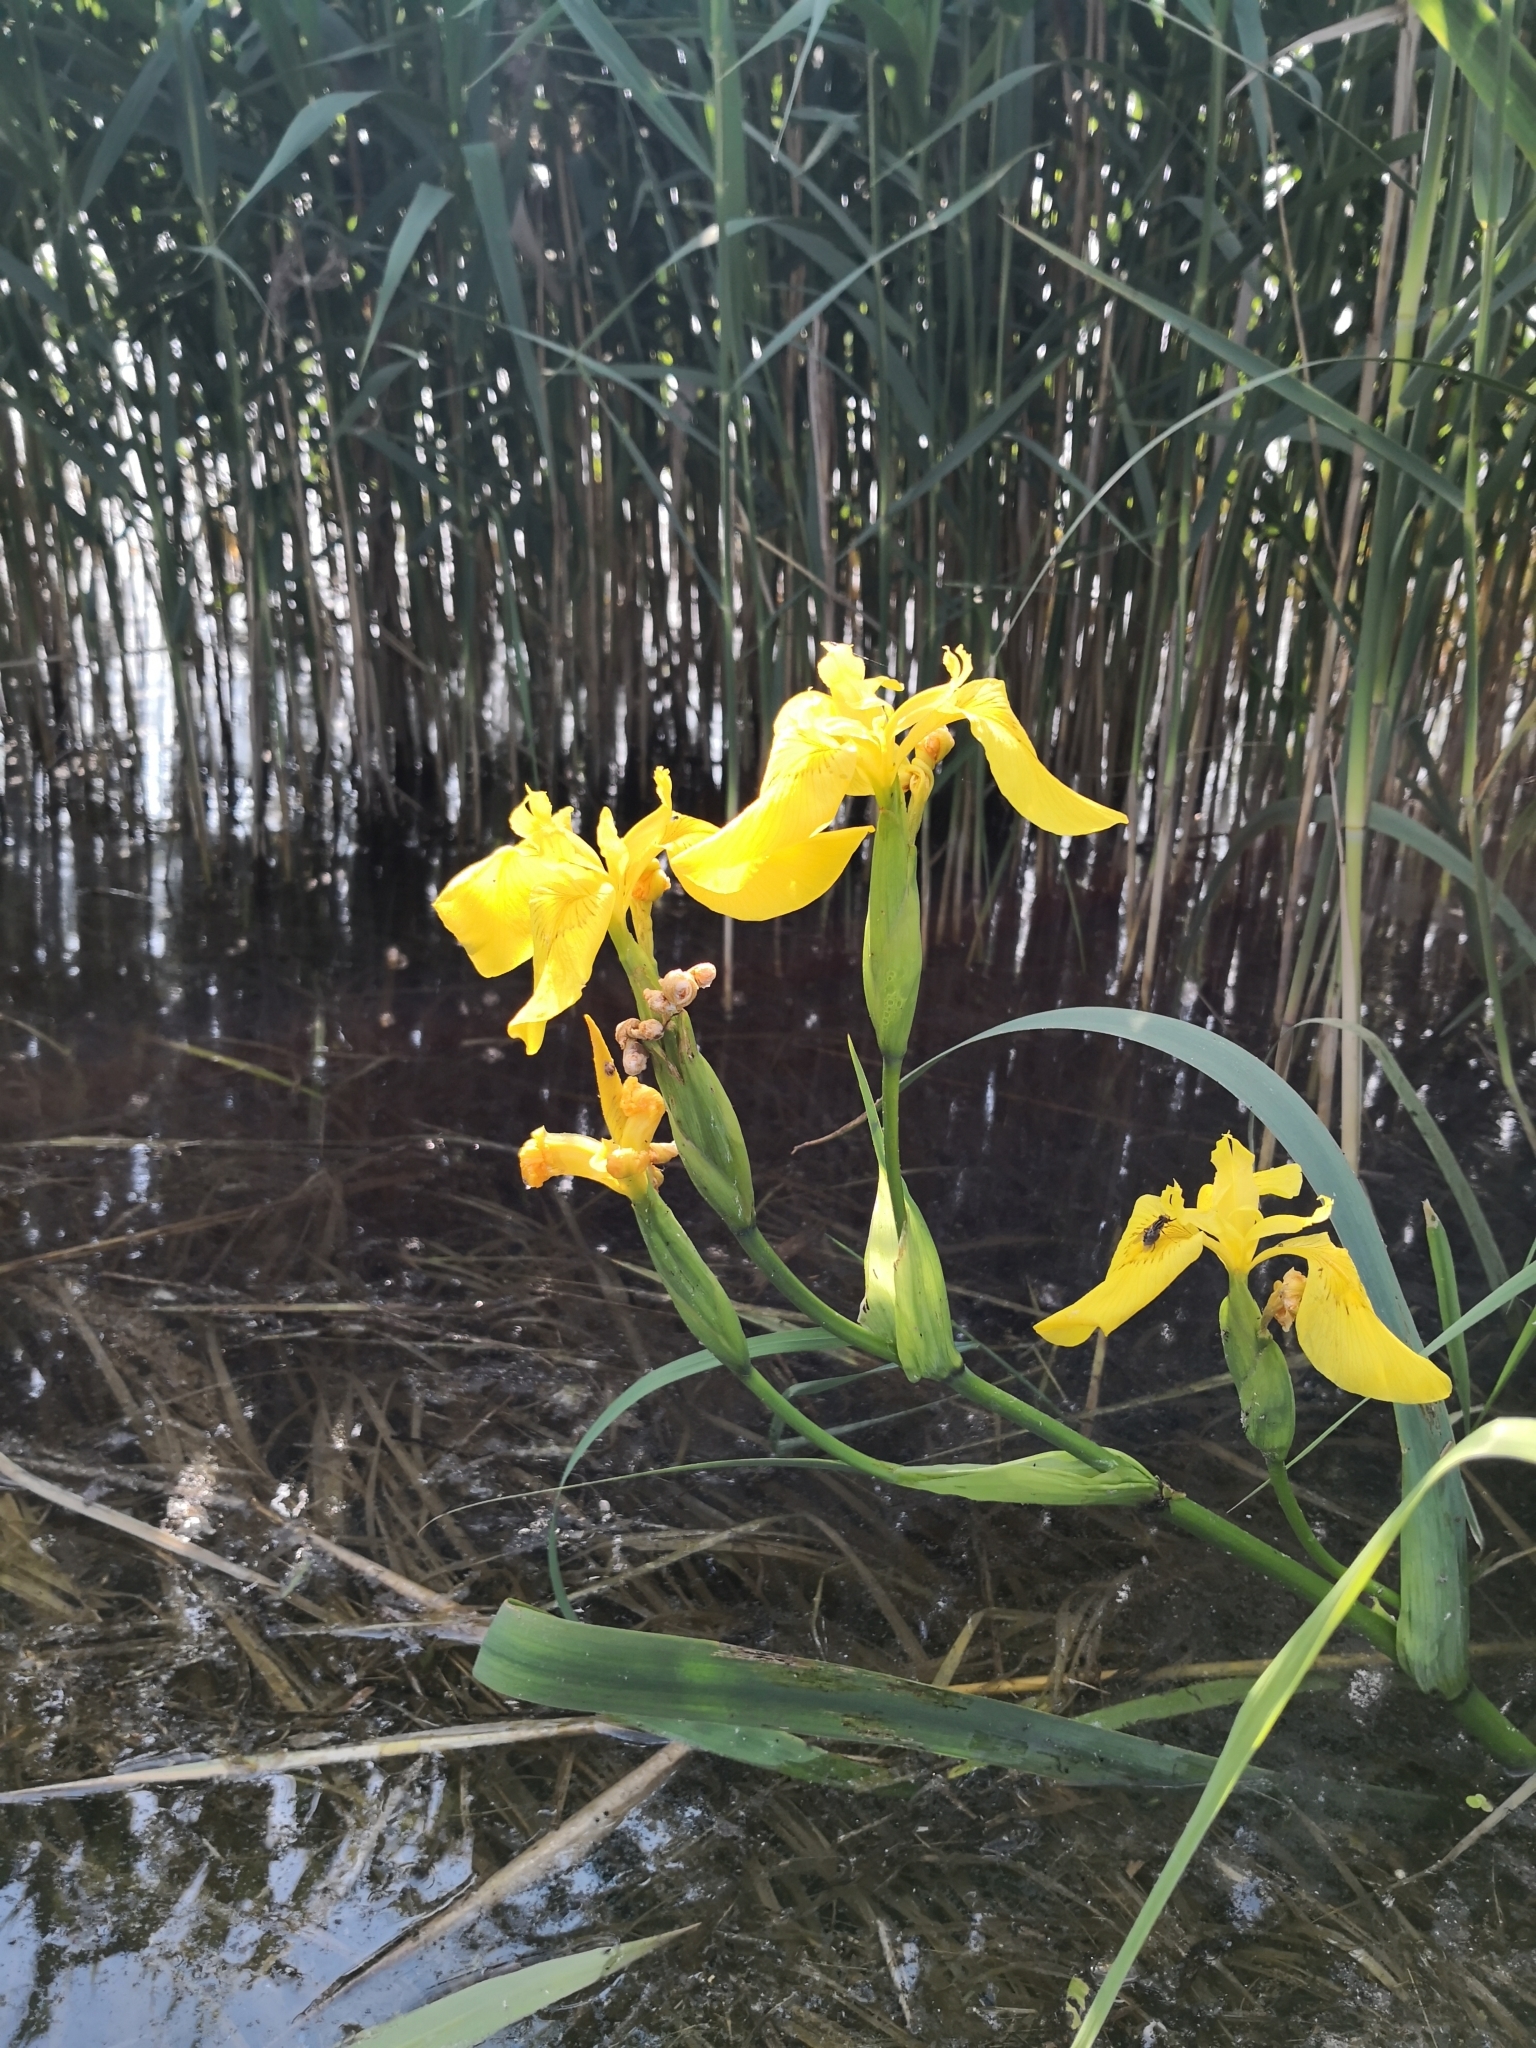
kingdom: Plantae
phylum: Tracheophyta
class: Liliopsida
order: Asparagales
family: Iridaceae
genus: Iris
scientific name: Iris pseudacorus
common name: Yellow flag
